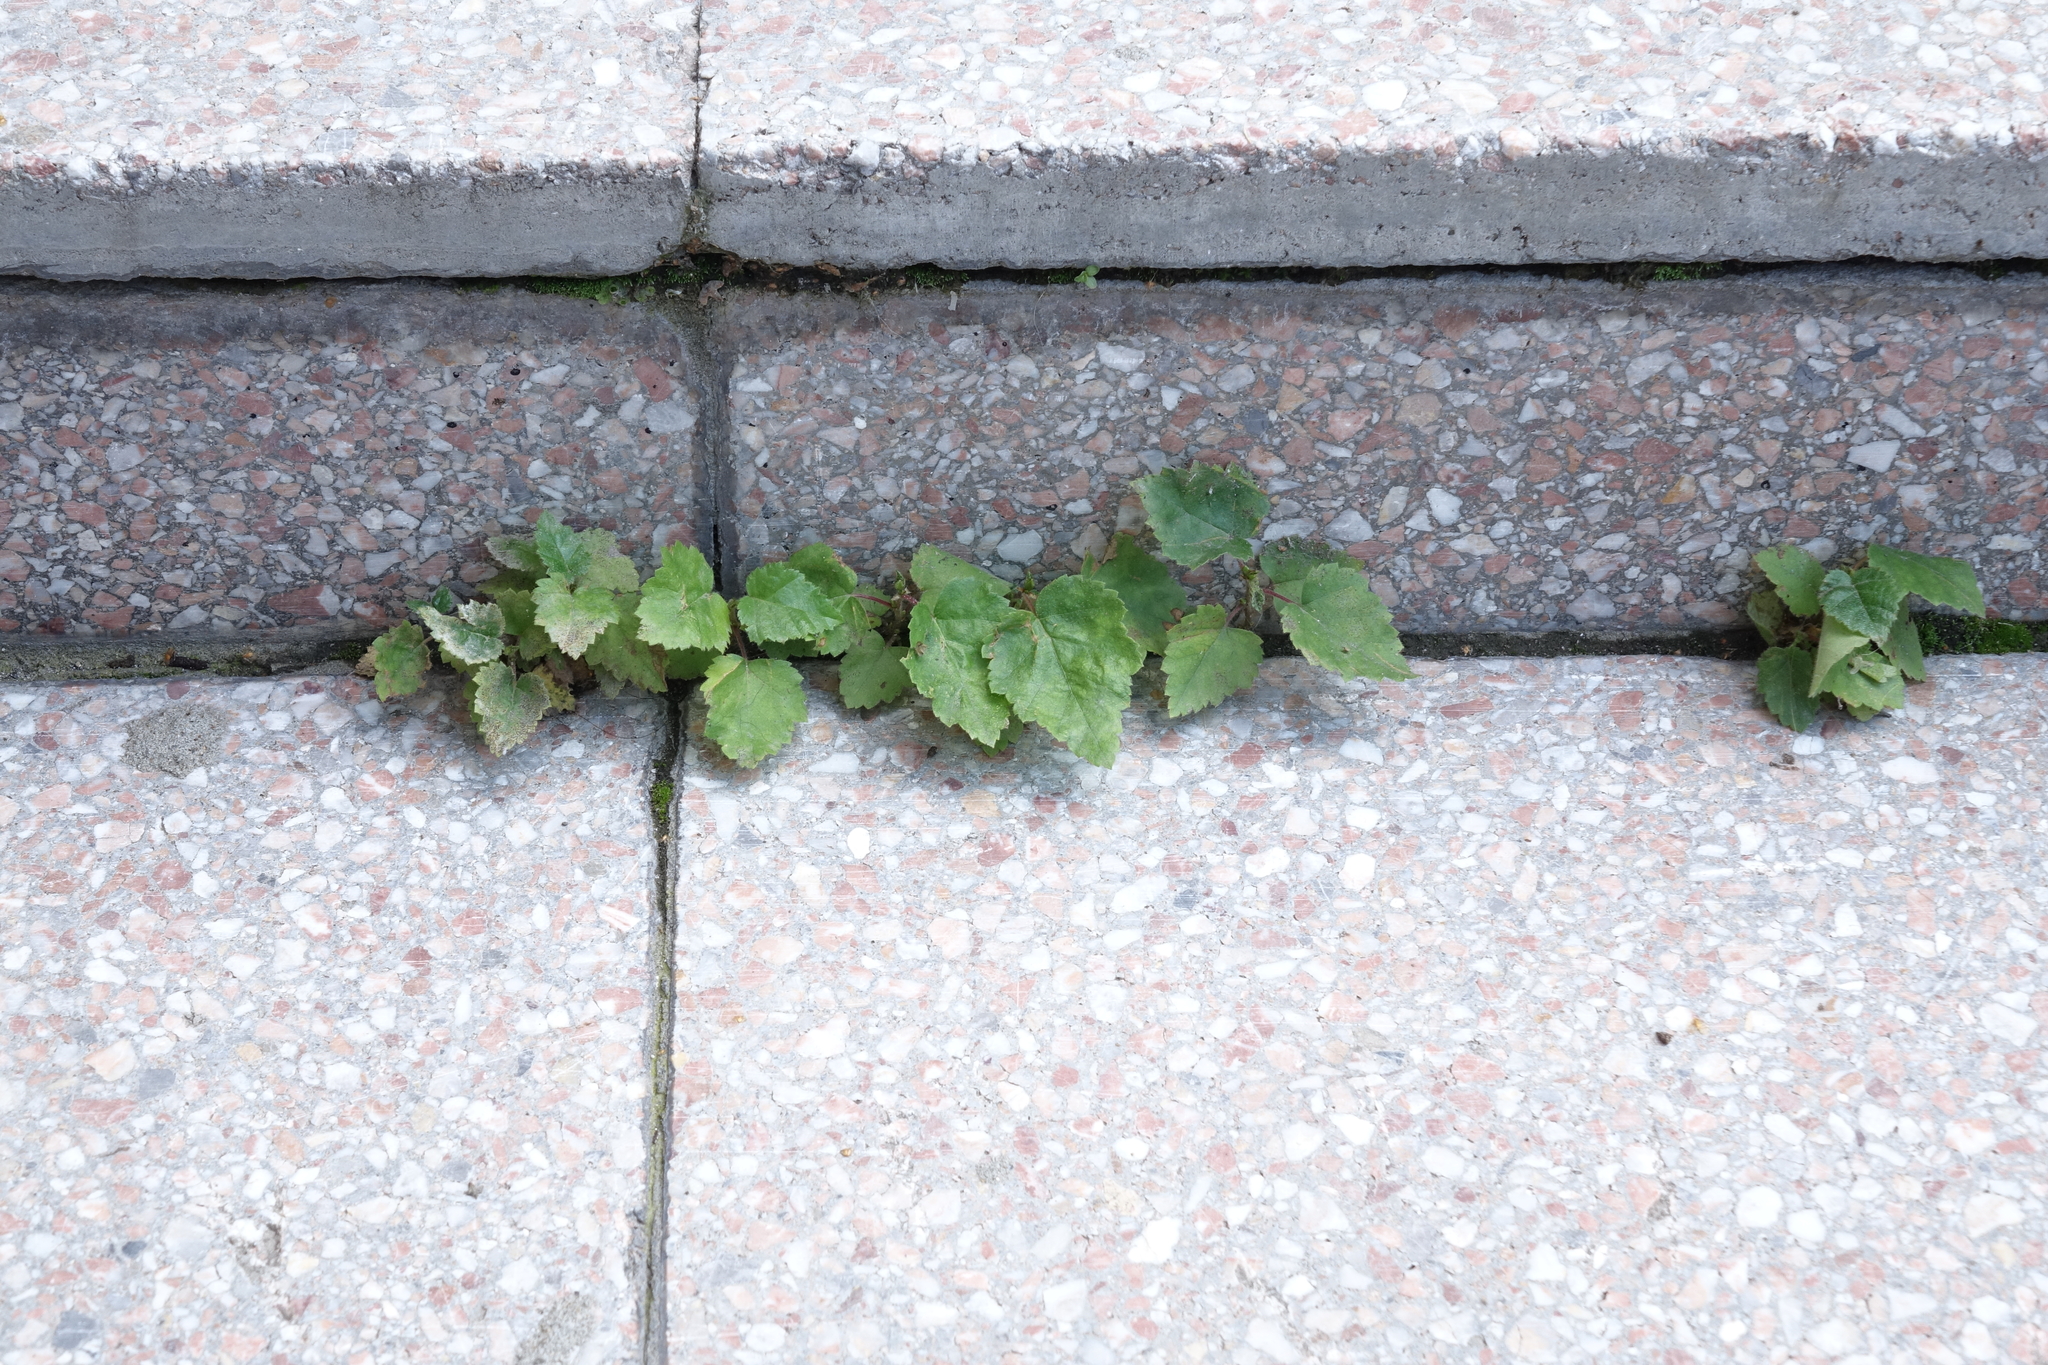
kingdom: Plantae
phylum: Tracheophyta
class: Magnoliopsida
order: Fagales
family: Betulaceae
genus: Betula
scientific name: Betula pendula
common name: Silver birch
